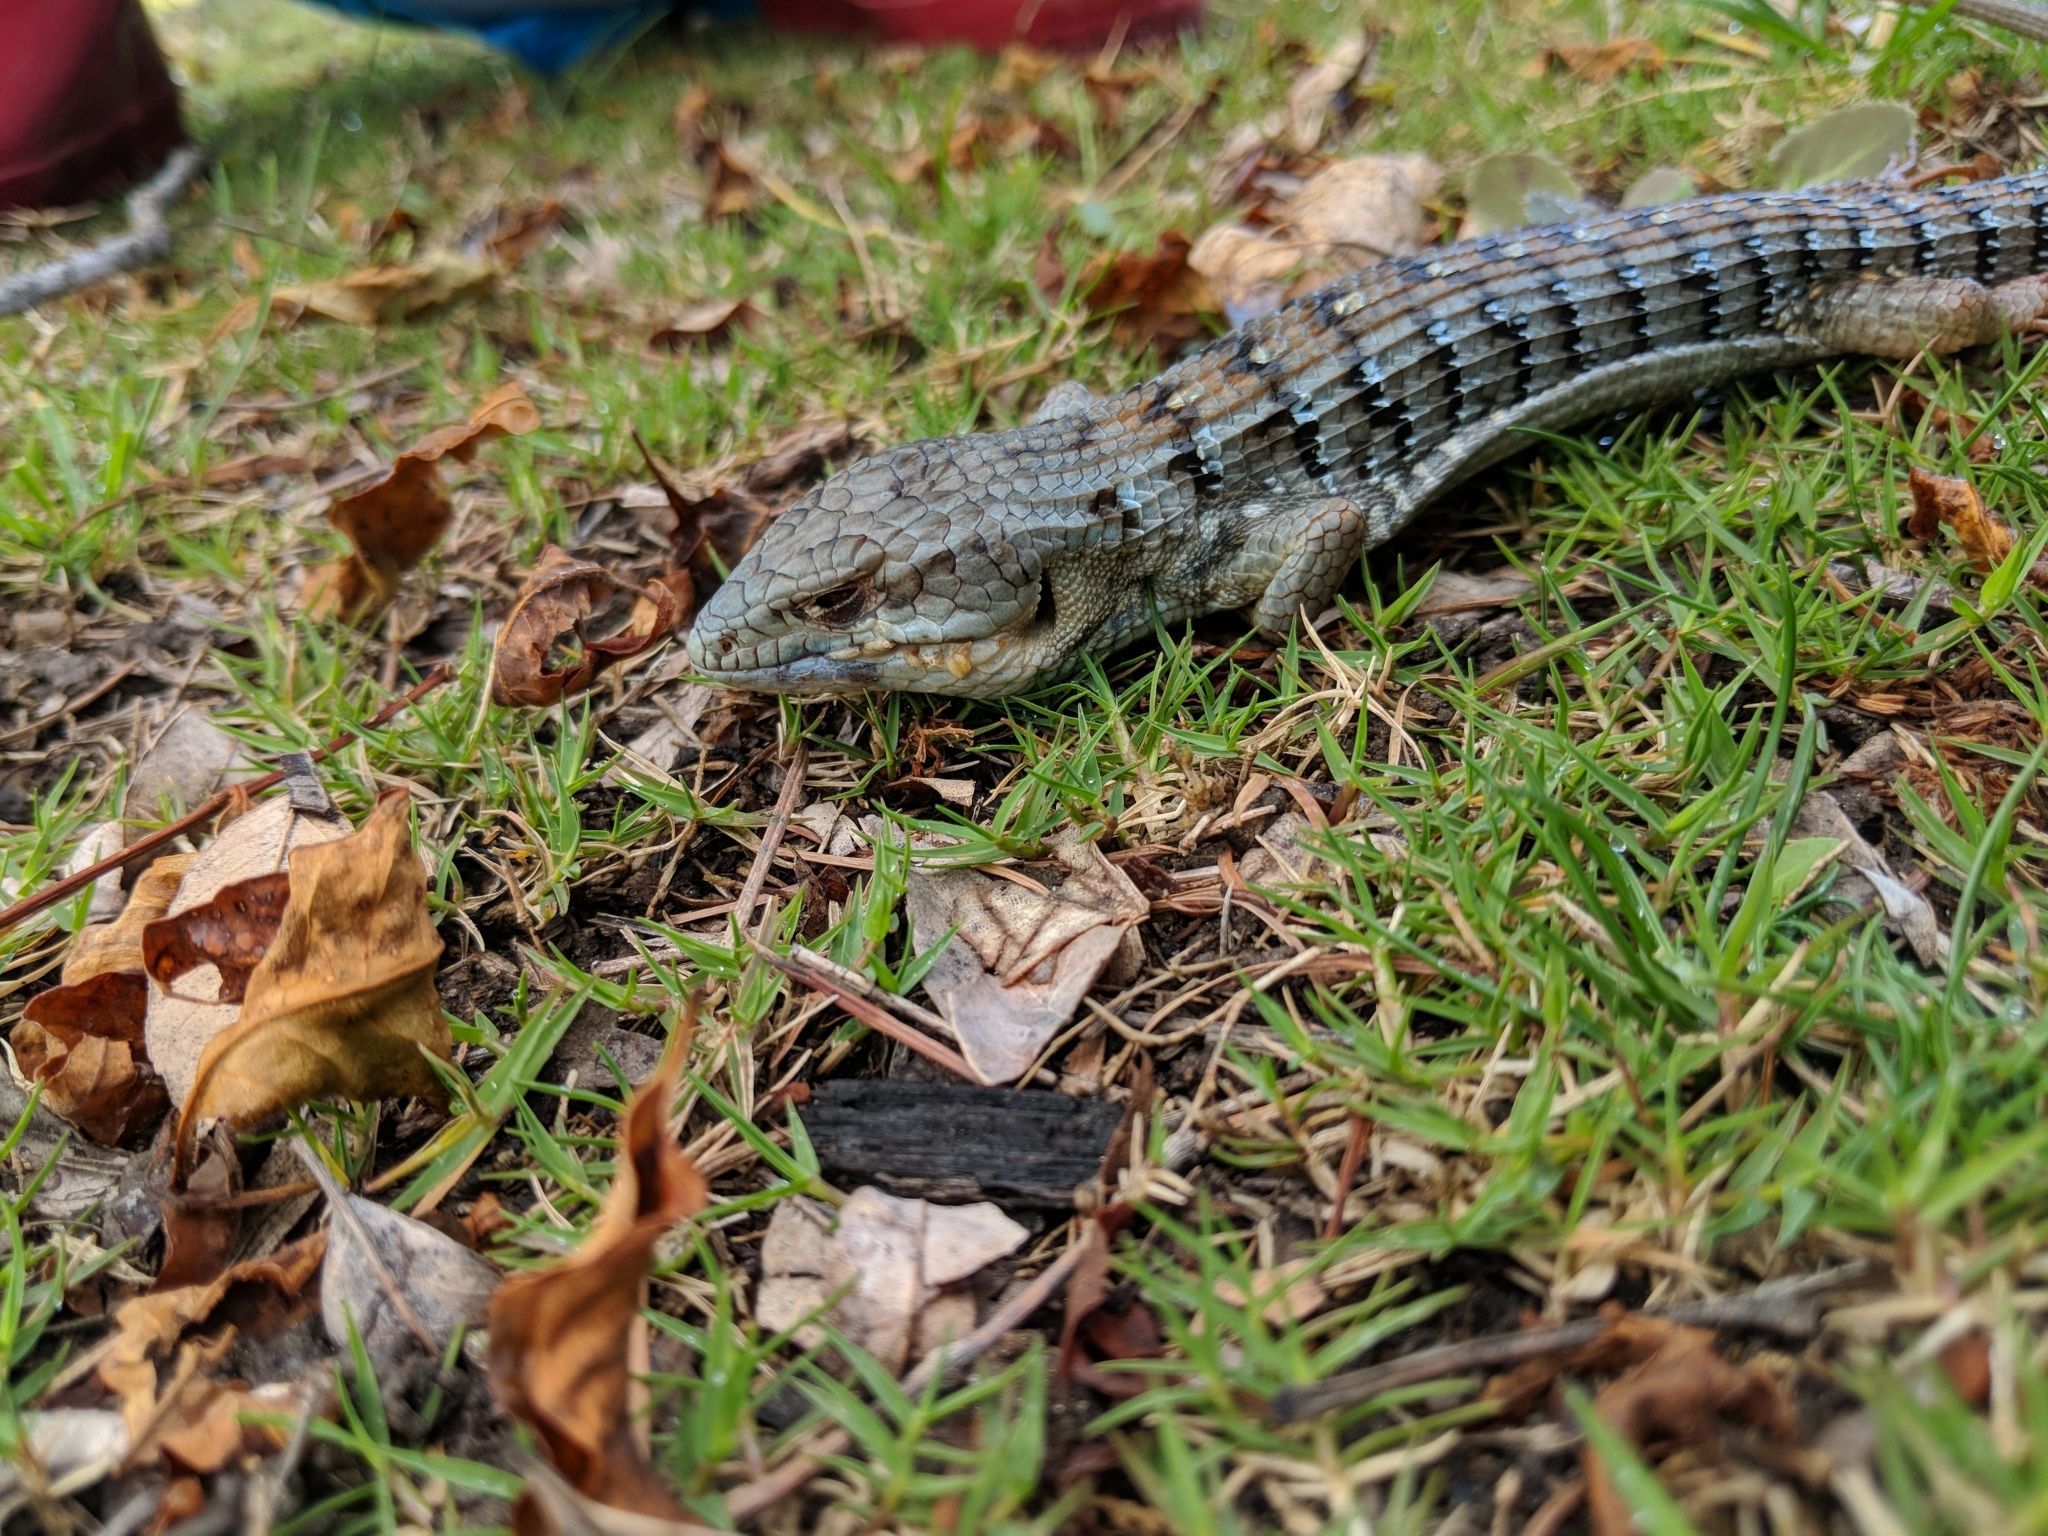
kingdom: Animalia
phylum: Chordata
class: Squamata
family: Anguidae
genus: Elgaria
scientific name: Elgaria multicarinata
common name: Southern alligator lizard
